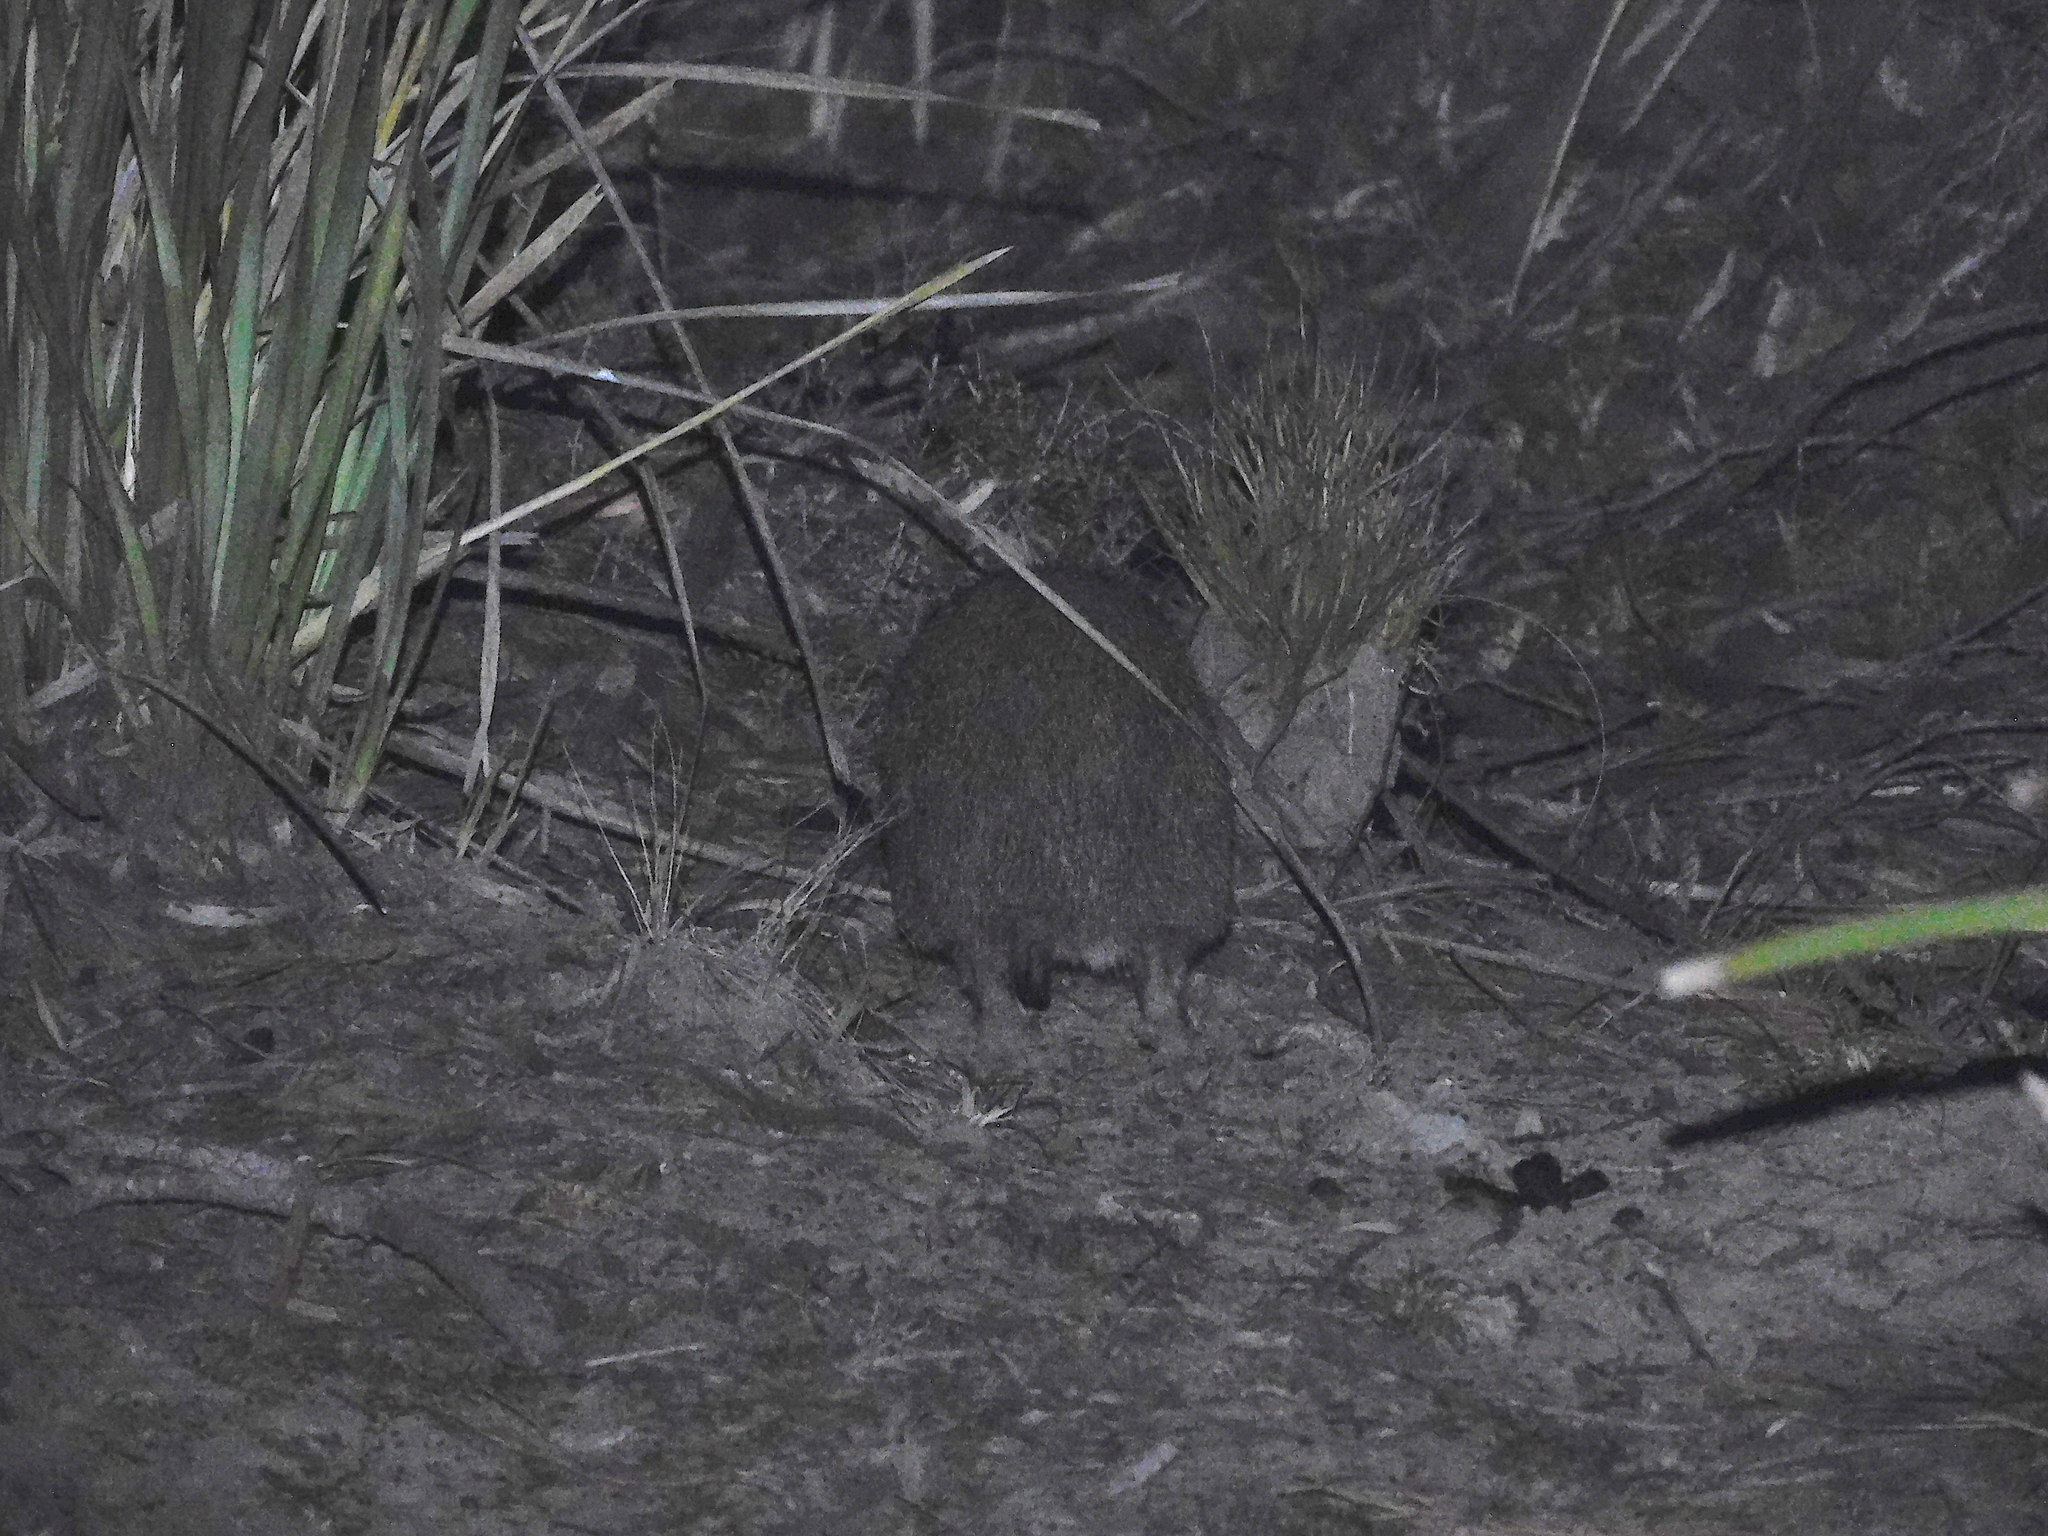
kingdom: Animalia
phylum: Chordata
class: Mammalia
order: Peramelemorphia
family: Peramelidae
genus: Isoodon
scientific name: Isoodon obesulus
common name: Southern brown bandicoot
